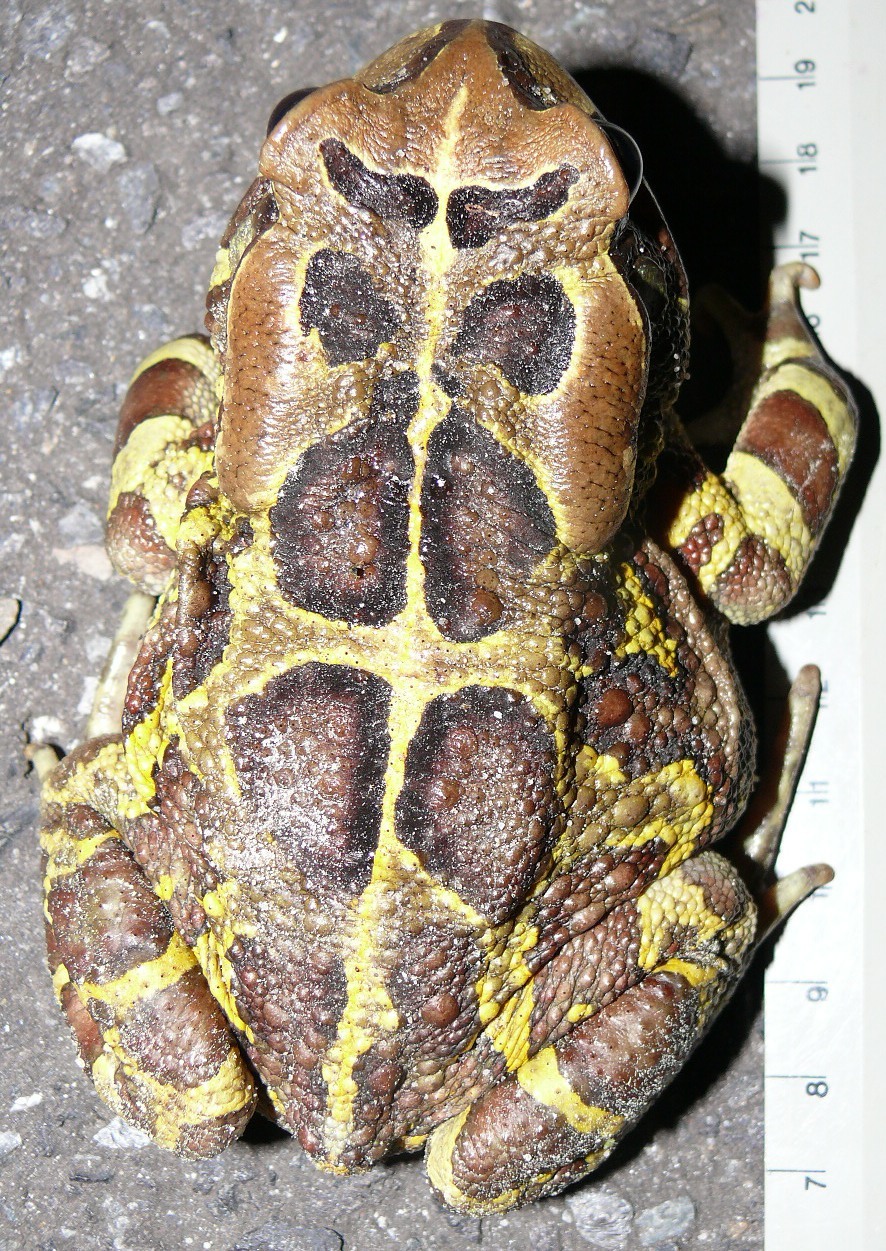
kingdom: Animalia
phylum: Chordata
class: Amphibia
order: Anura
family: Bufonidae
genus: Sclerophrys
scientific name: Sclerophrys pantherina
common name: Panther toad
